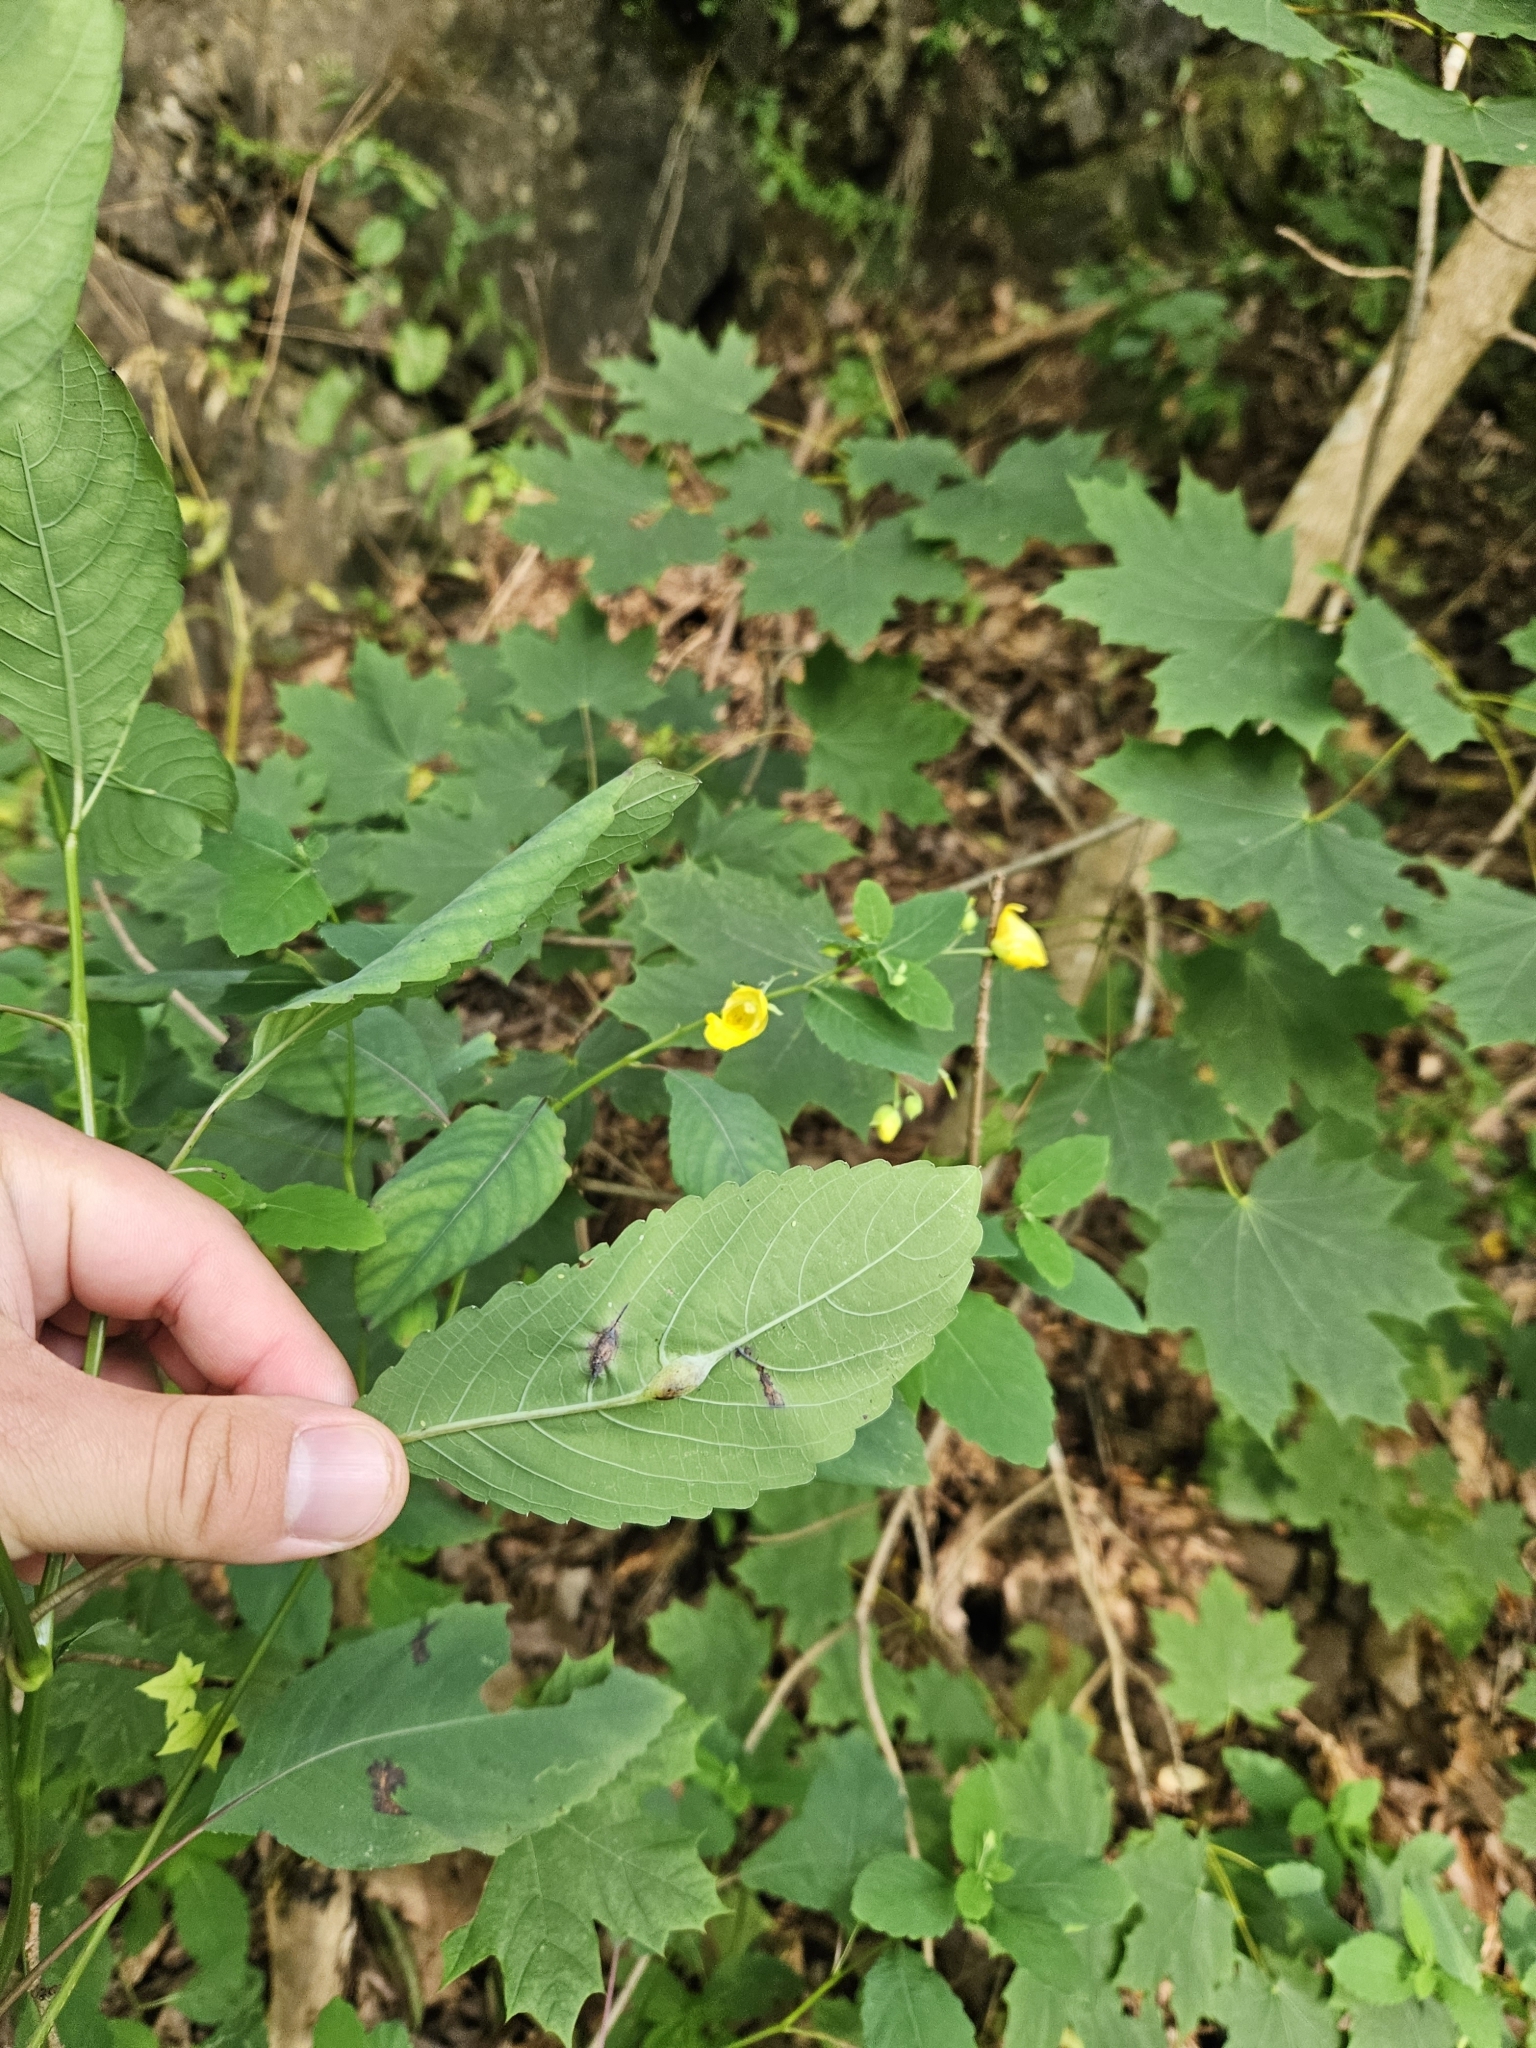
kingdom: Plantae
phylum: Tracheophyta
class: Magnoliopsida
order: Ericales
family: Balsaminaceae
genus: Impatiens
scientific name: Impatiens pallida
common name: Pale snapweed
